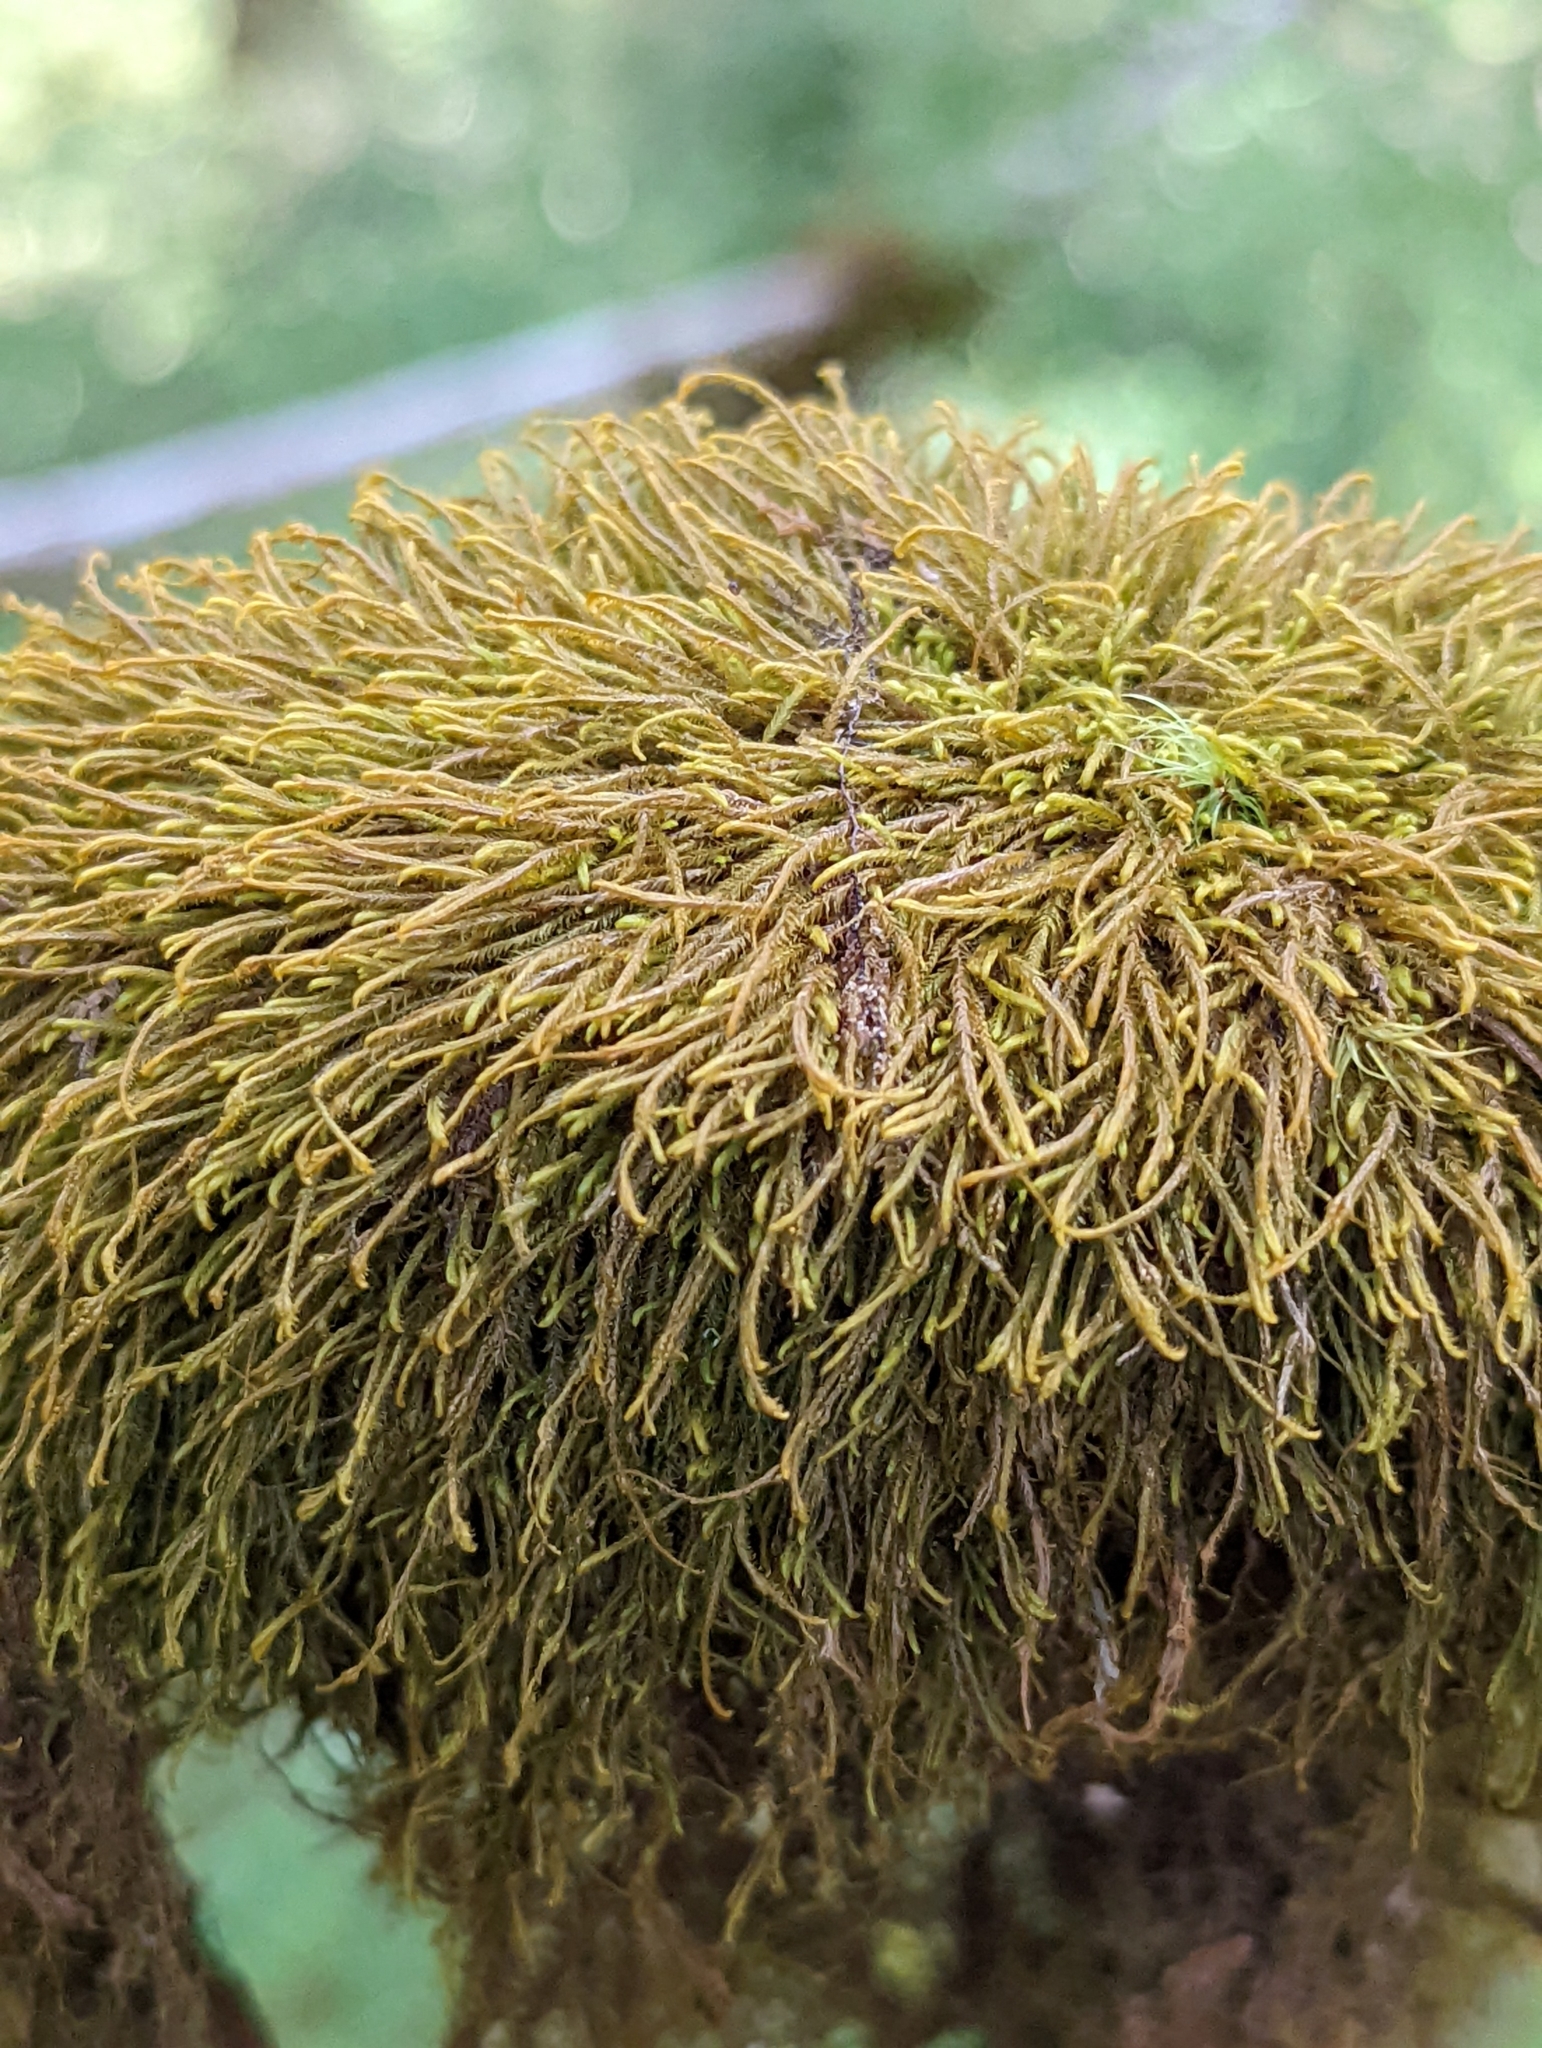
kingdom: Plantae
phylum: Marchantiophyta
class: Jungermanniopsida
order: Jungermanniales
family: Herbertaceae
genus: Herbertus
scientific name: Herbertus aduncus
